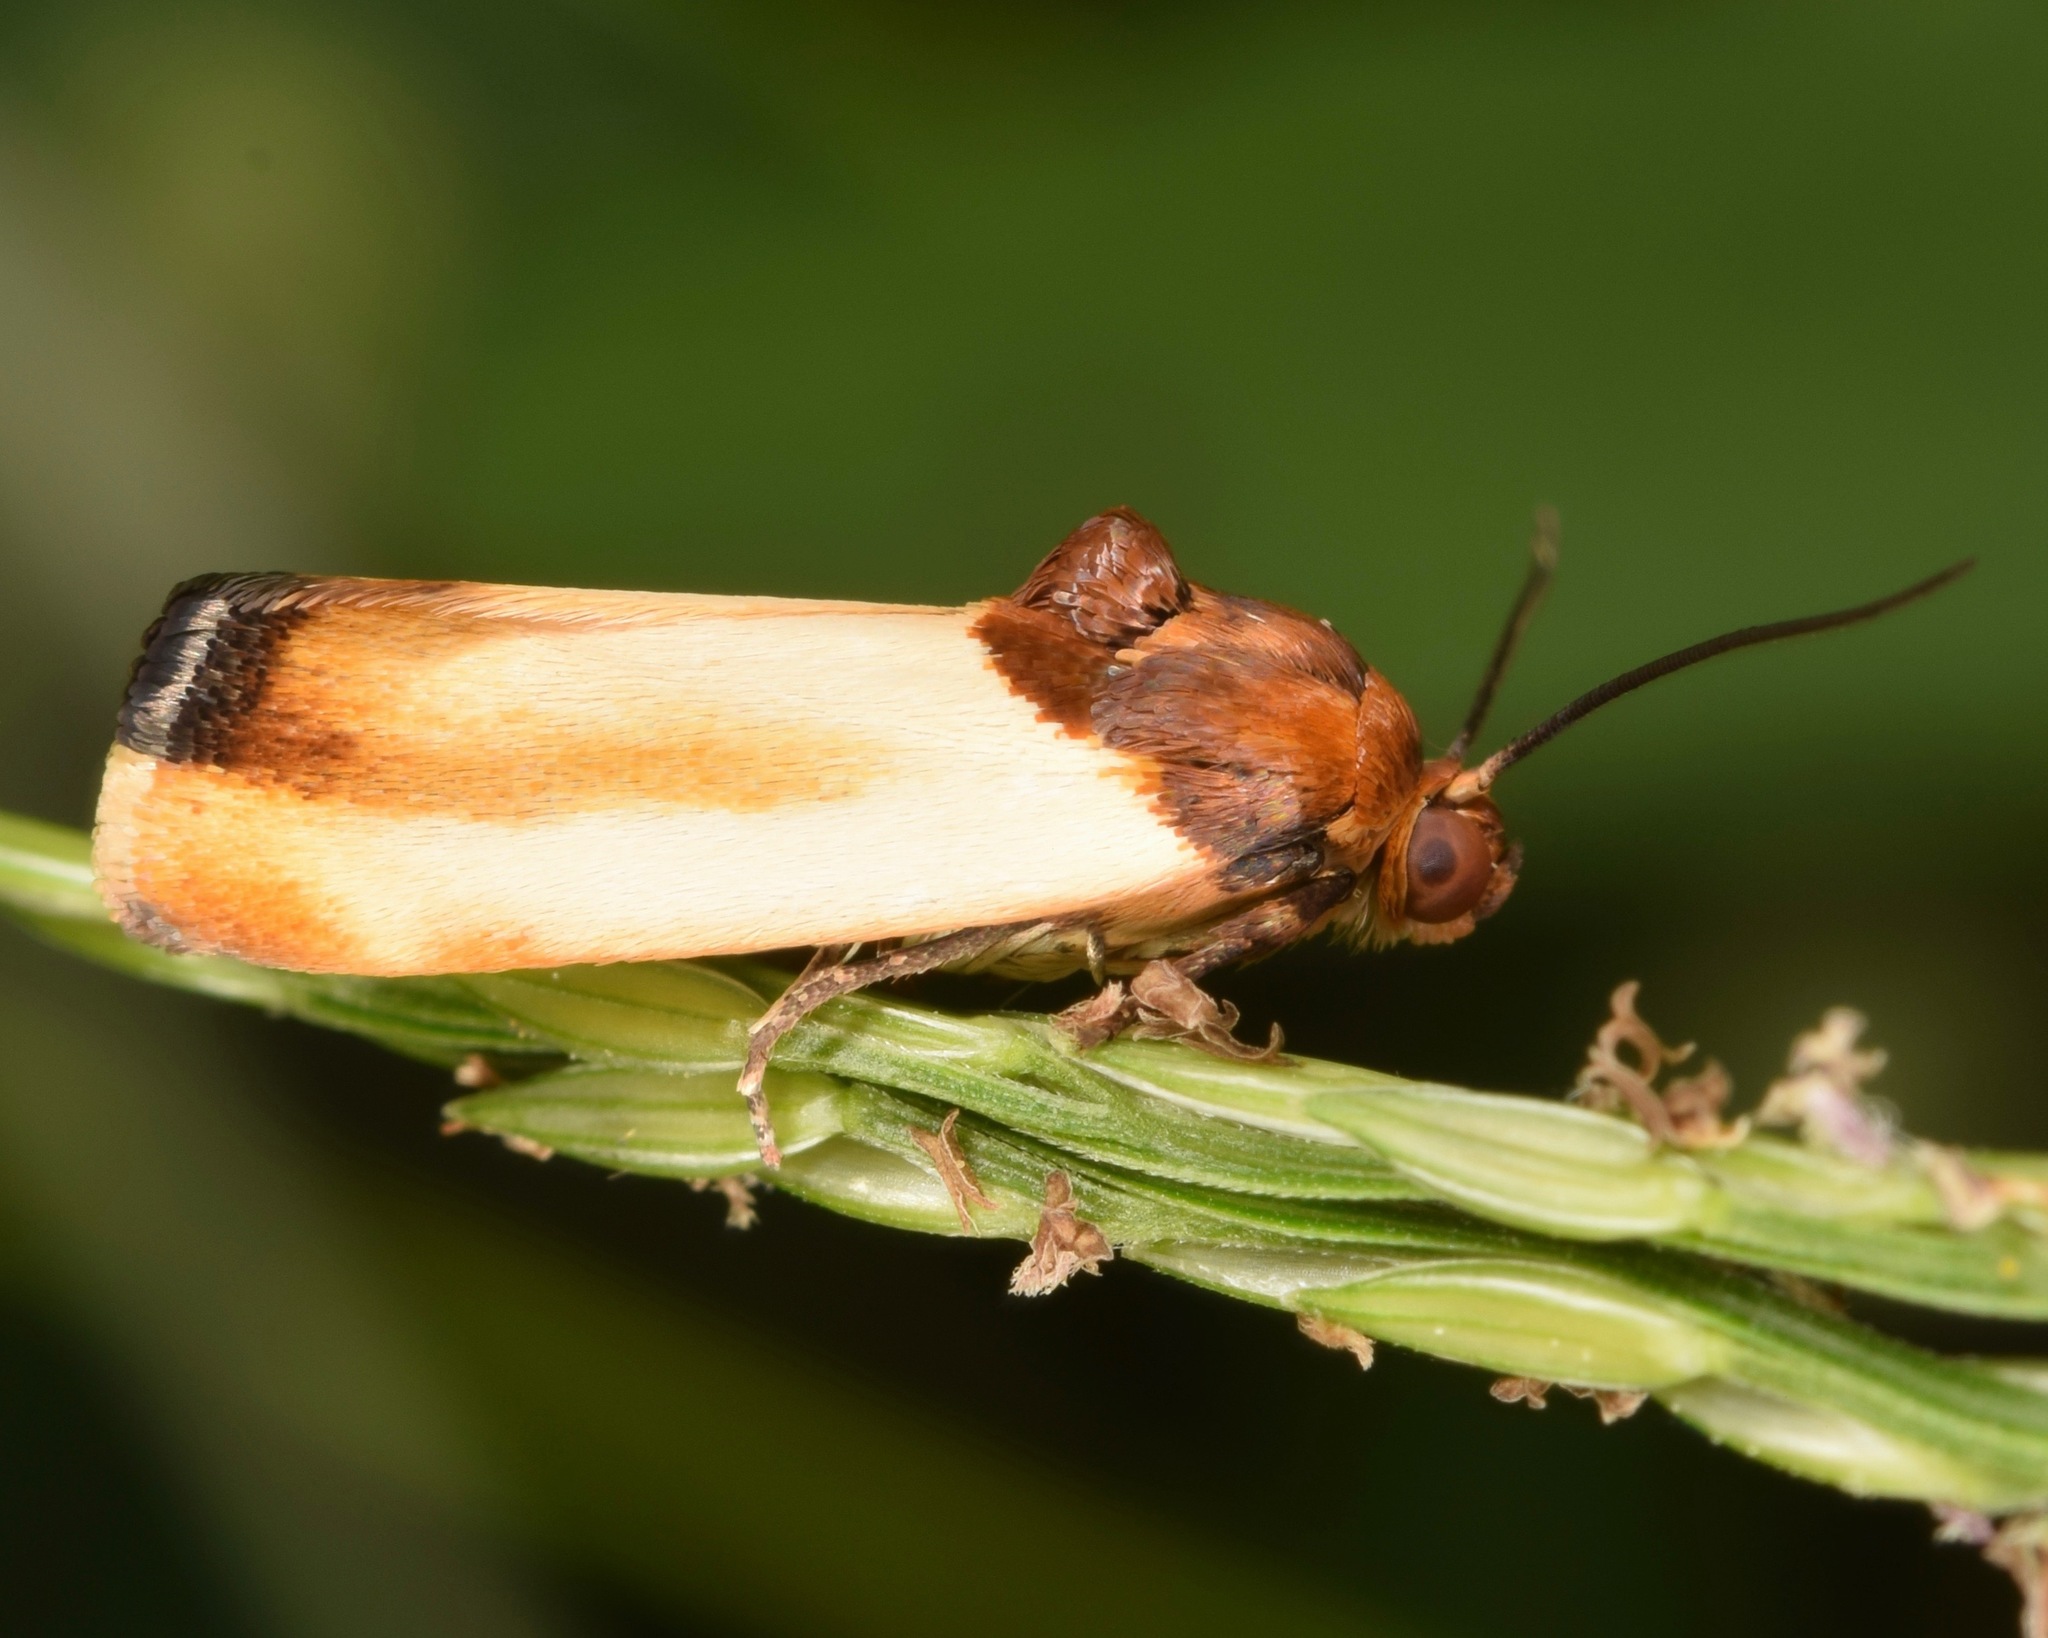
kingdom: Animalia
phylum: Arthropoda
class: Insecta
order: Lepidoptera
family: Noctuidae
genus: Spragueia
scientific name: Spragueia apicalis
